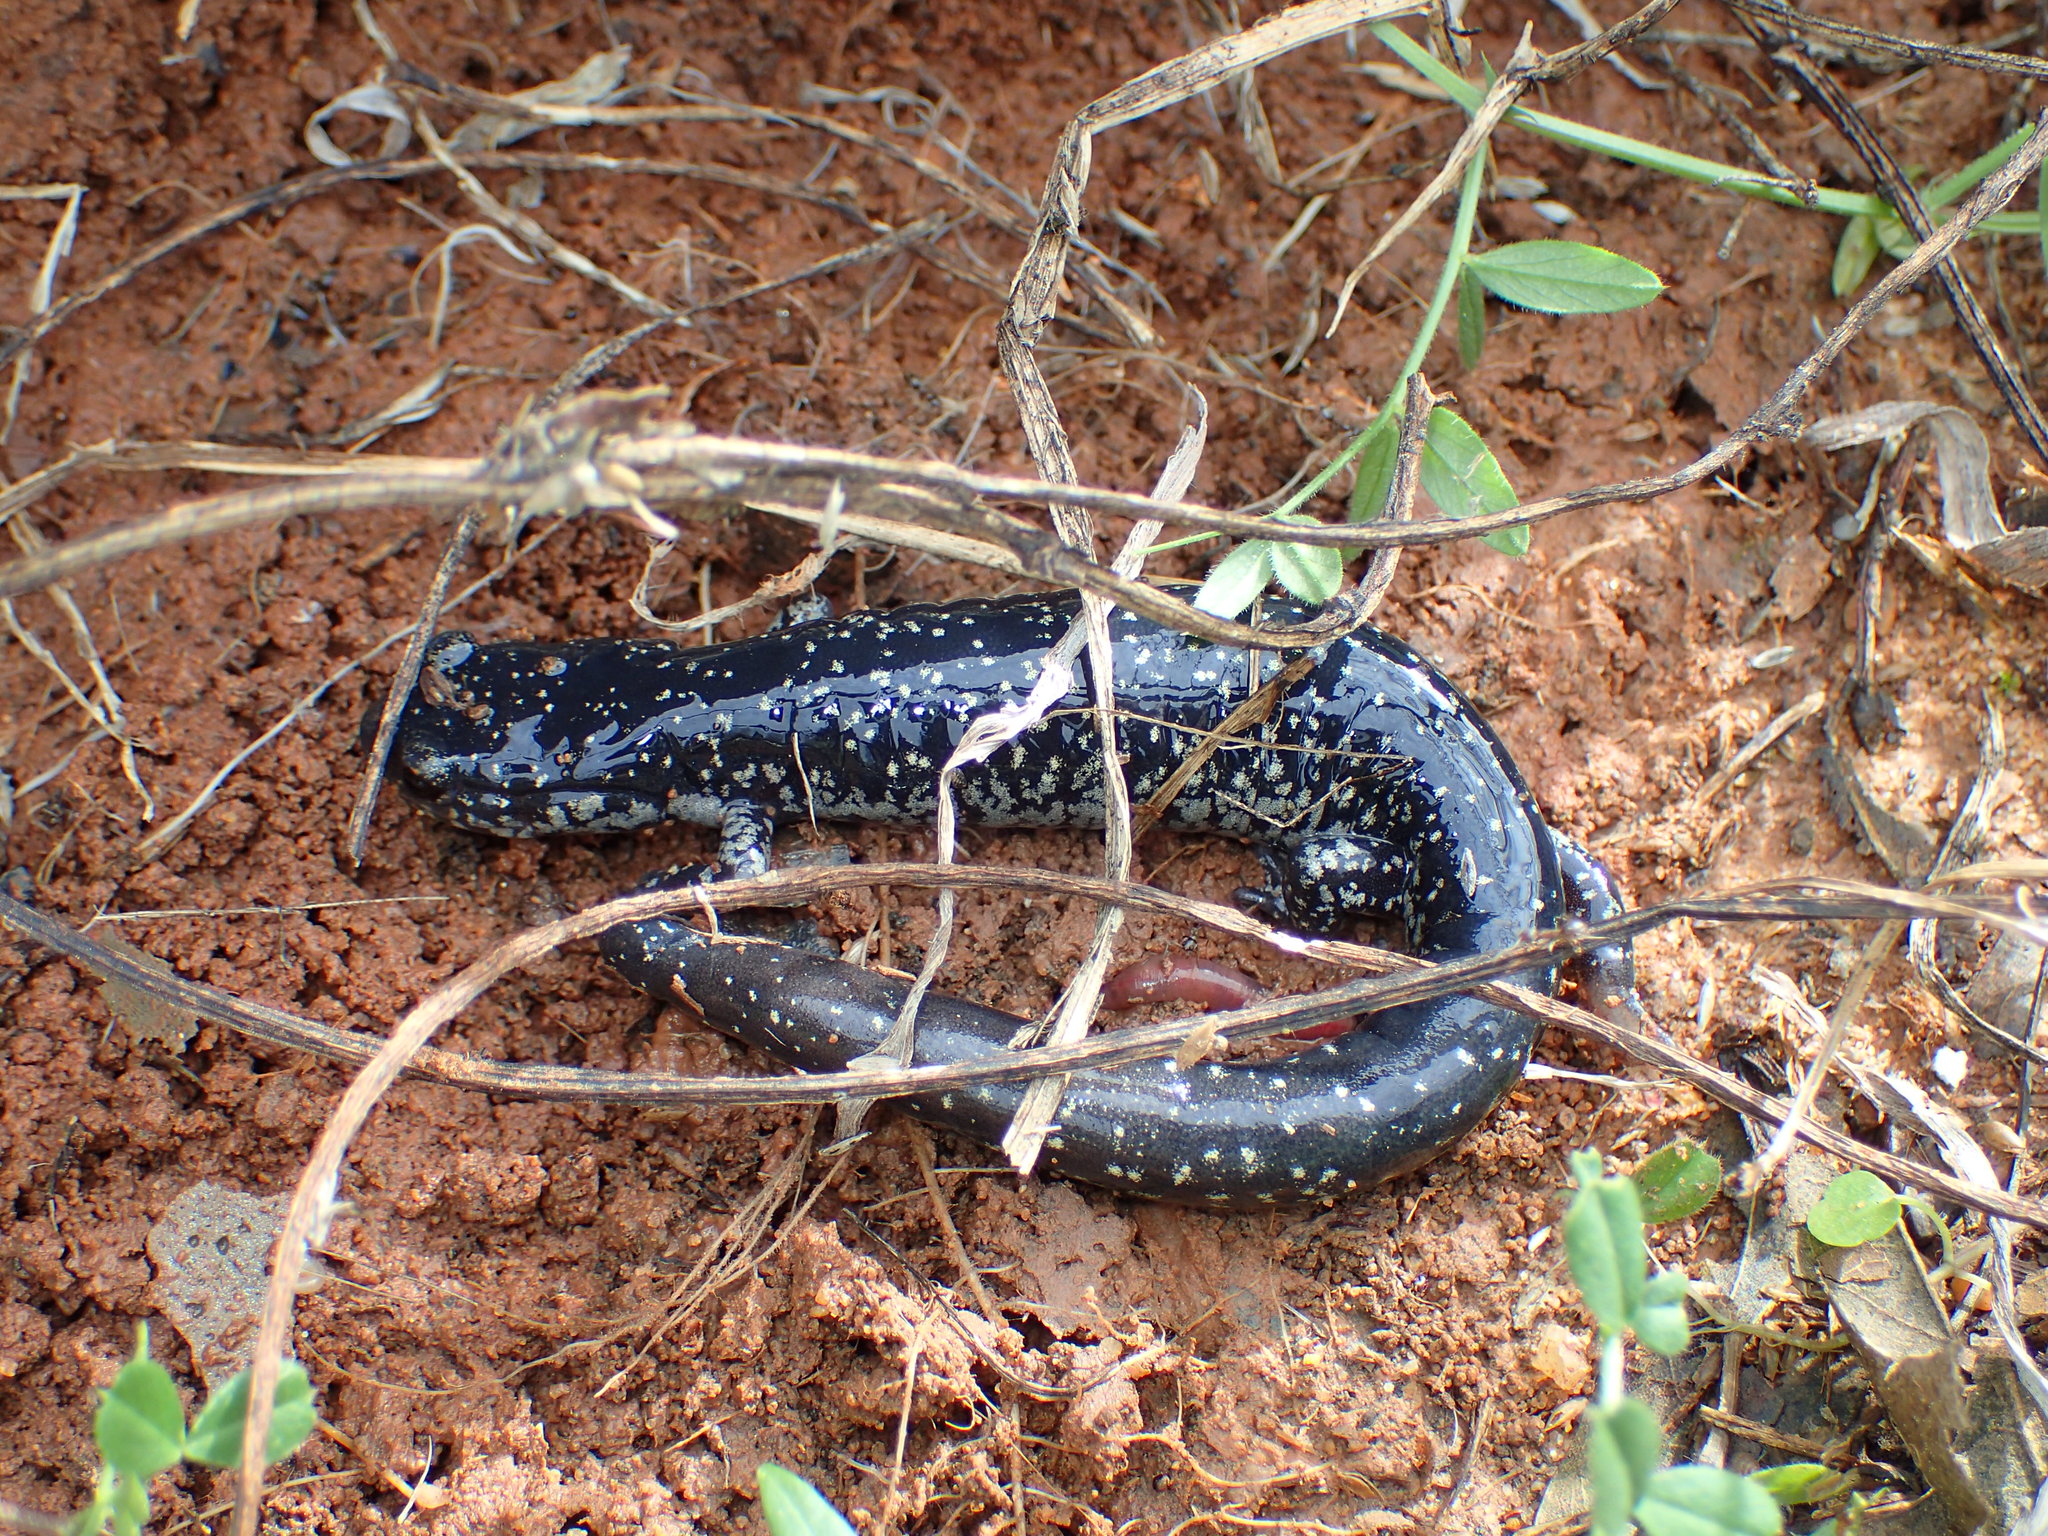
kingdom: Animalia
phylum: Chordata
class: Amphibia
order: Caudata
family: Plethodontidae
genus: Plethodon
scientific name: Plethodon glutinosus
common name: Northern slimy salamander
